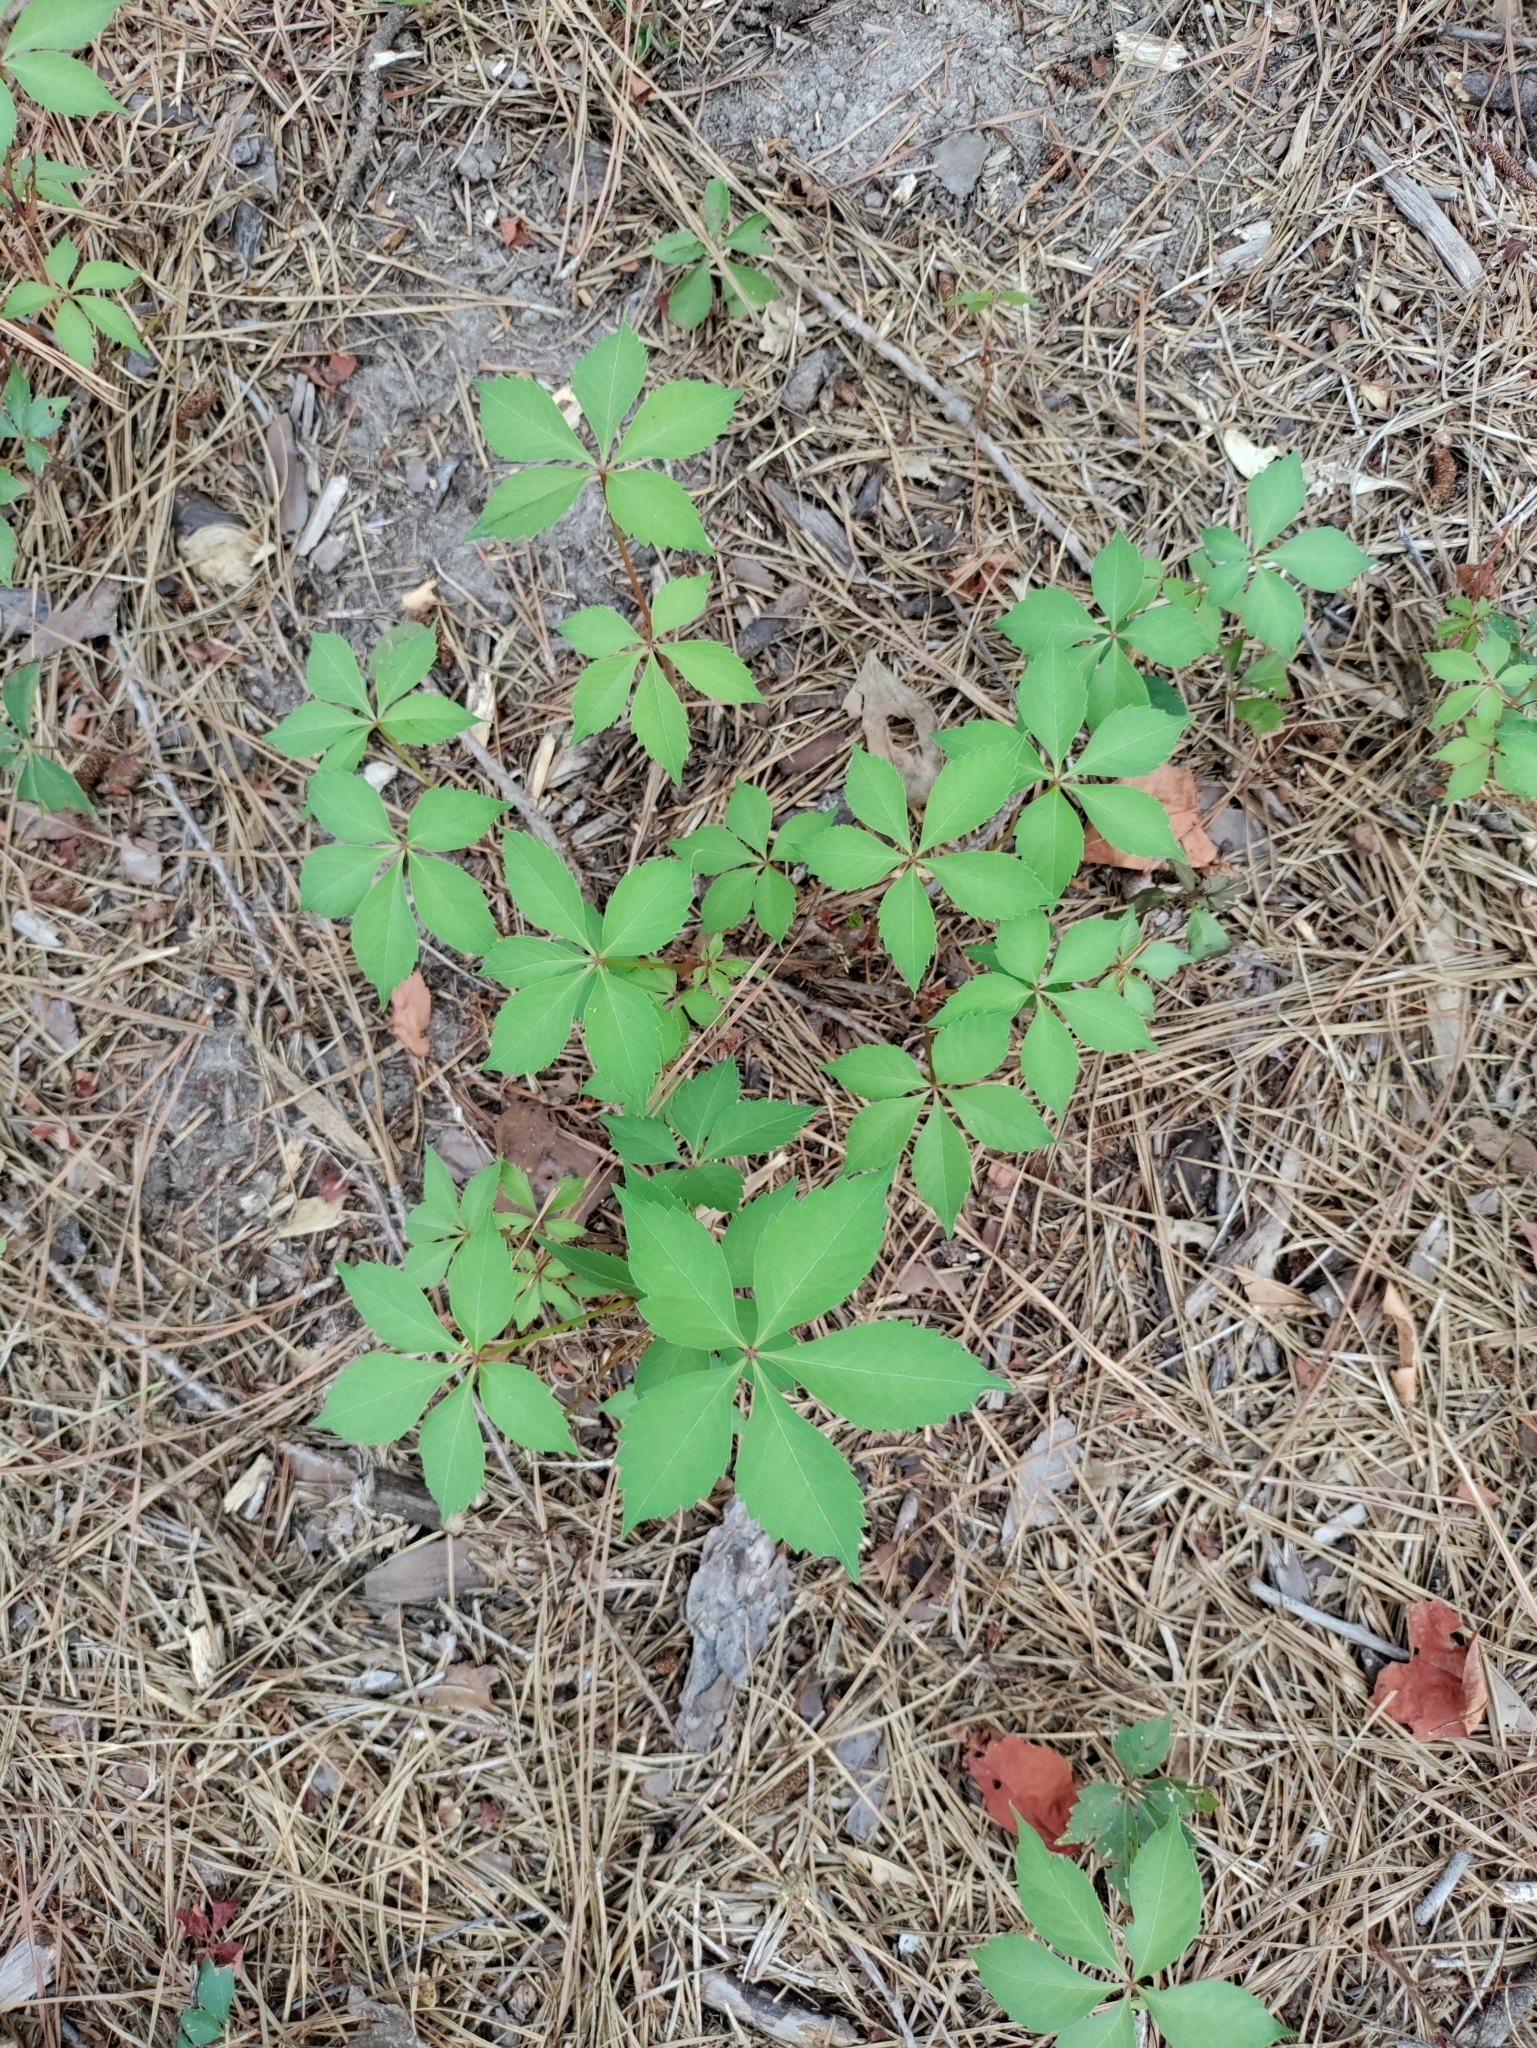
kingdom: Plantae
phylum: Tracheophyta
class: Magnoliopsida
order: Vitales
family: Vitaceae
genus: Parthenocissus
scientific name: Parthenocissus quinquefolia
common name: Virginia-creeper
